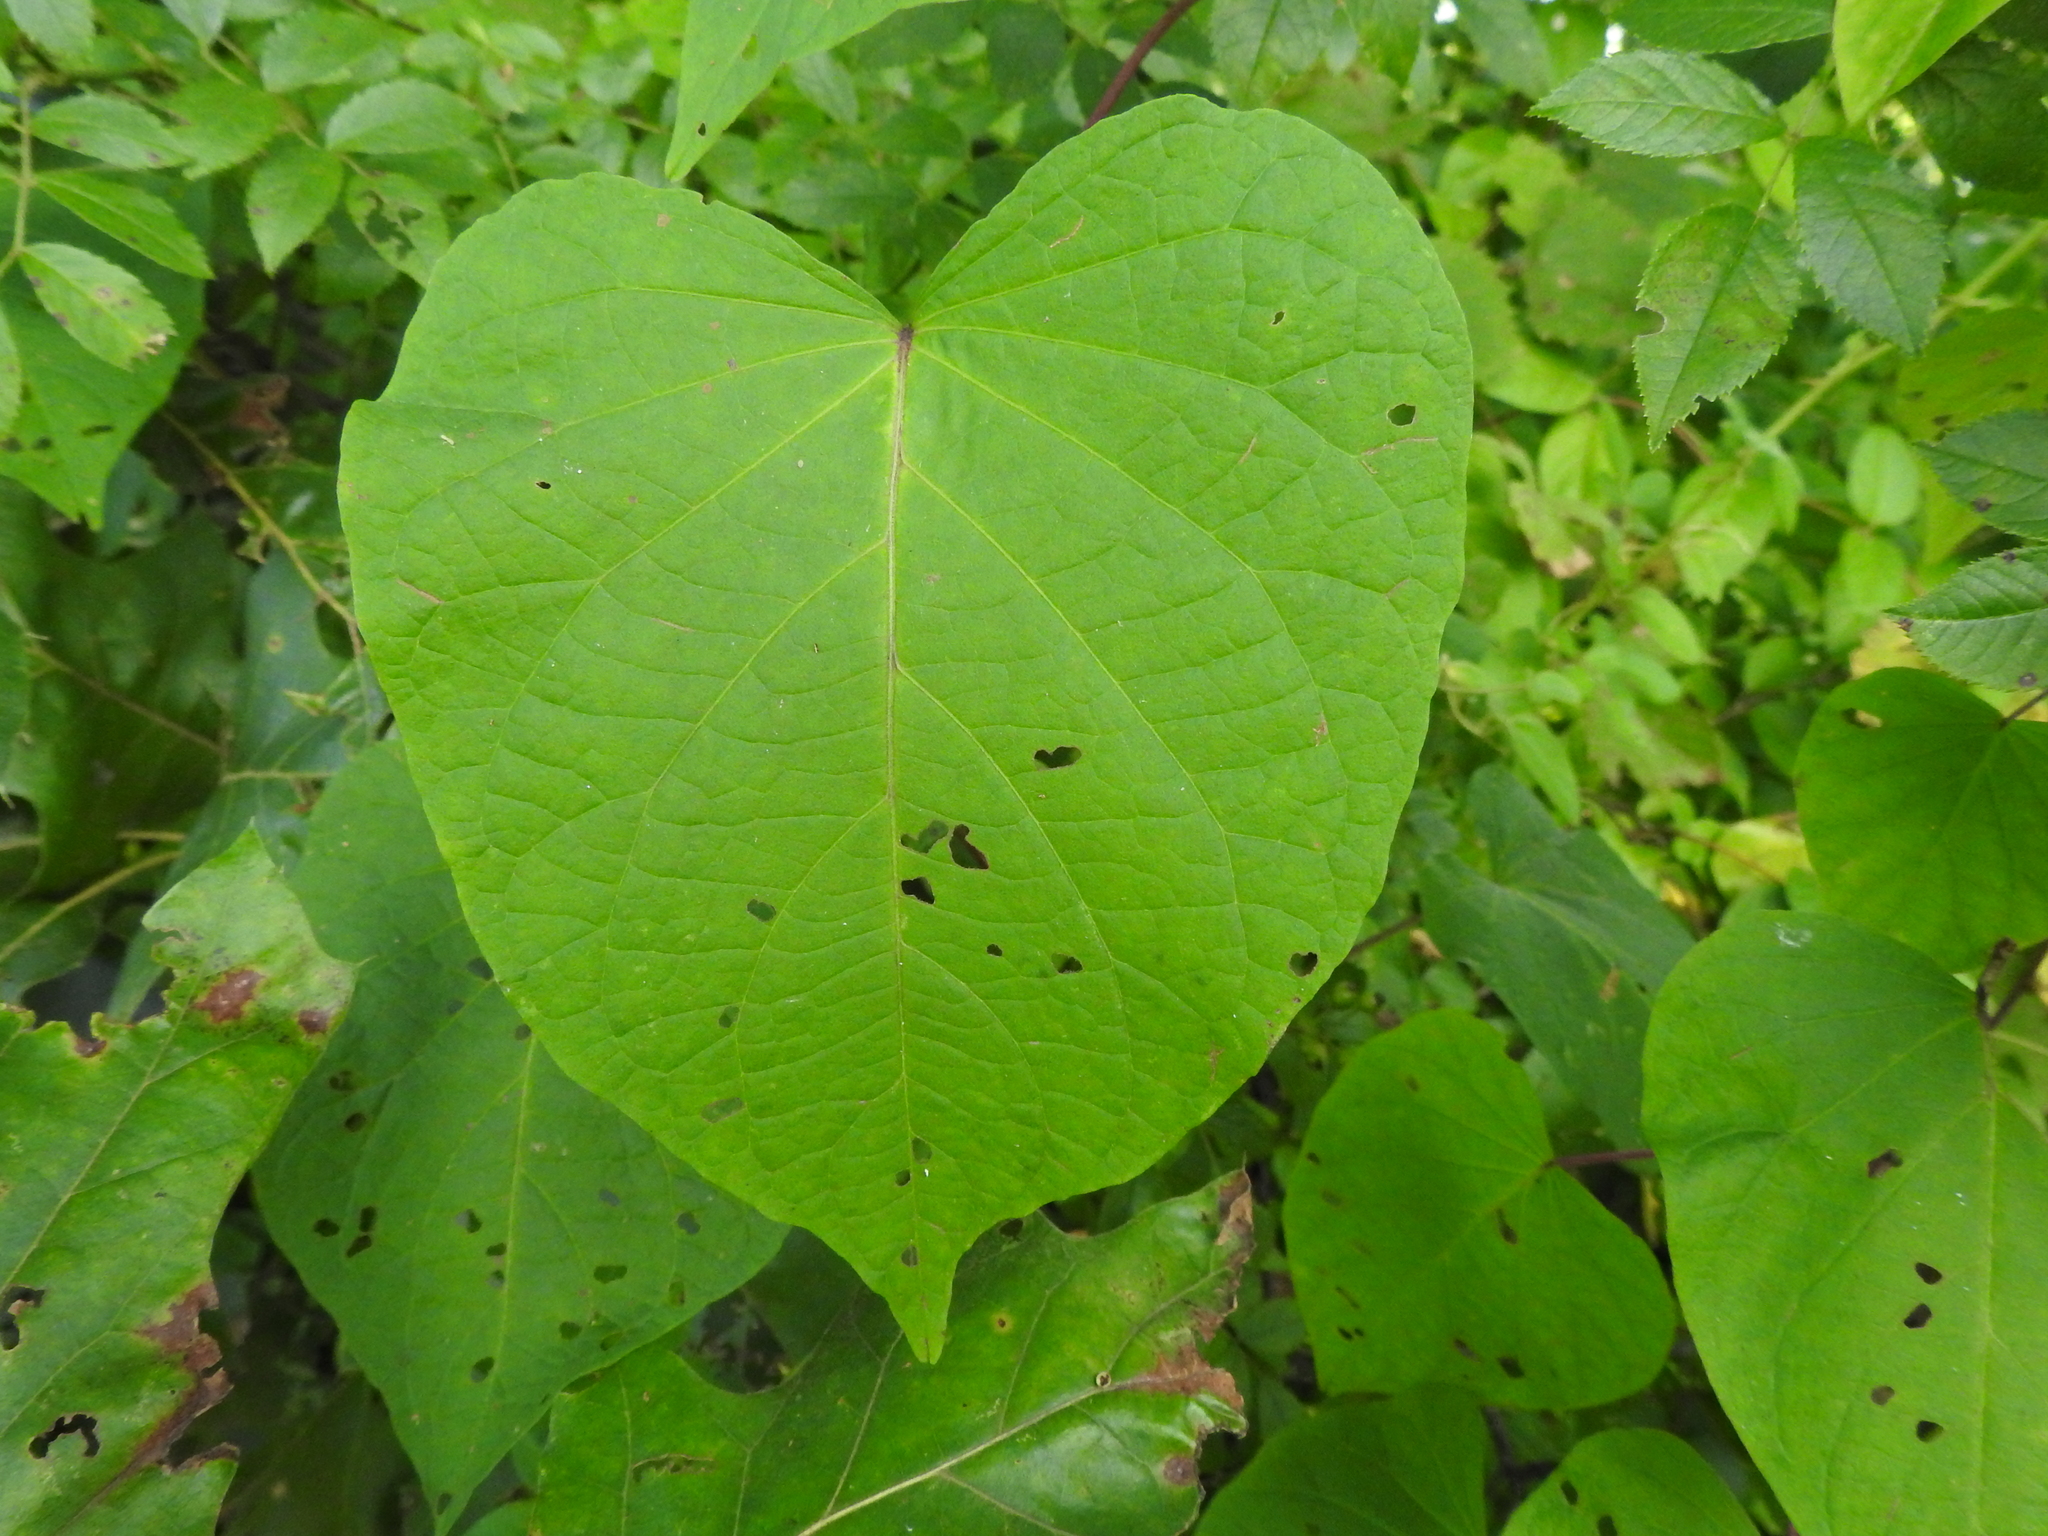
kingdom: Plantae
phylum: Tracheophyta
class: Magnoliopsida
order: Piperales
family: Aristolochiaceae
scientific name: Aristolochiaceae
